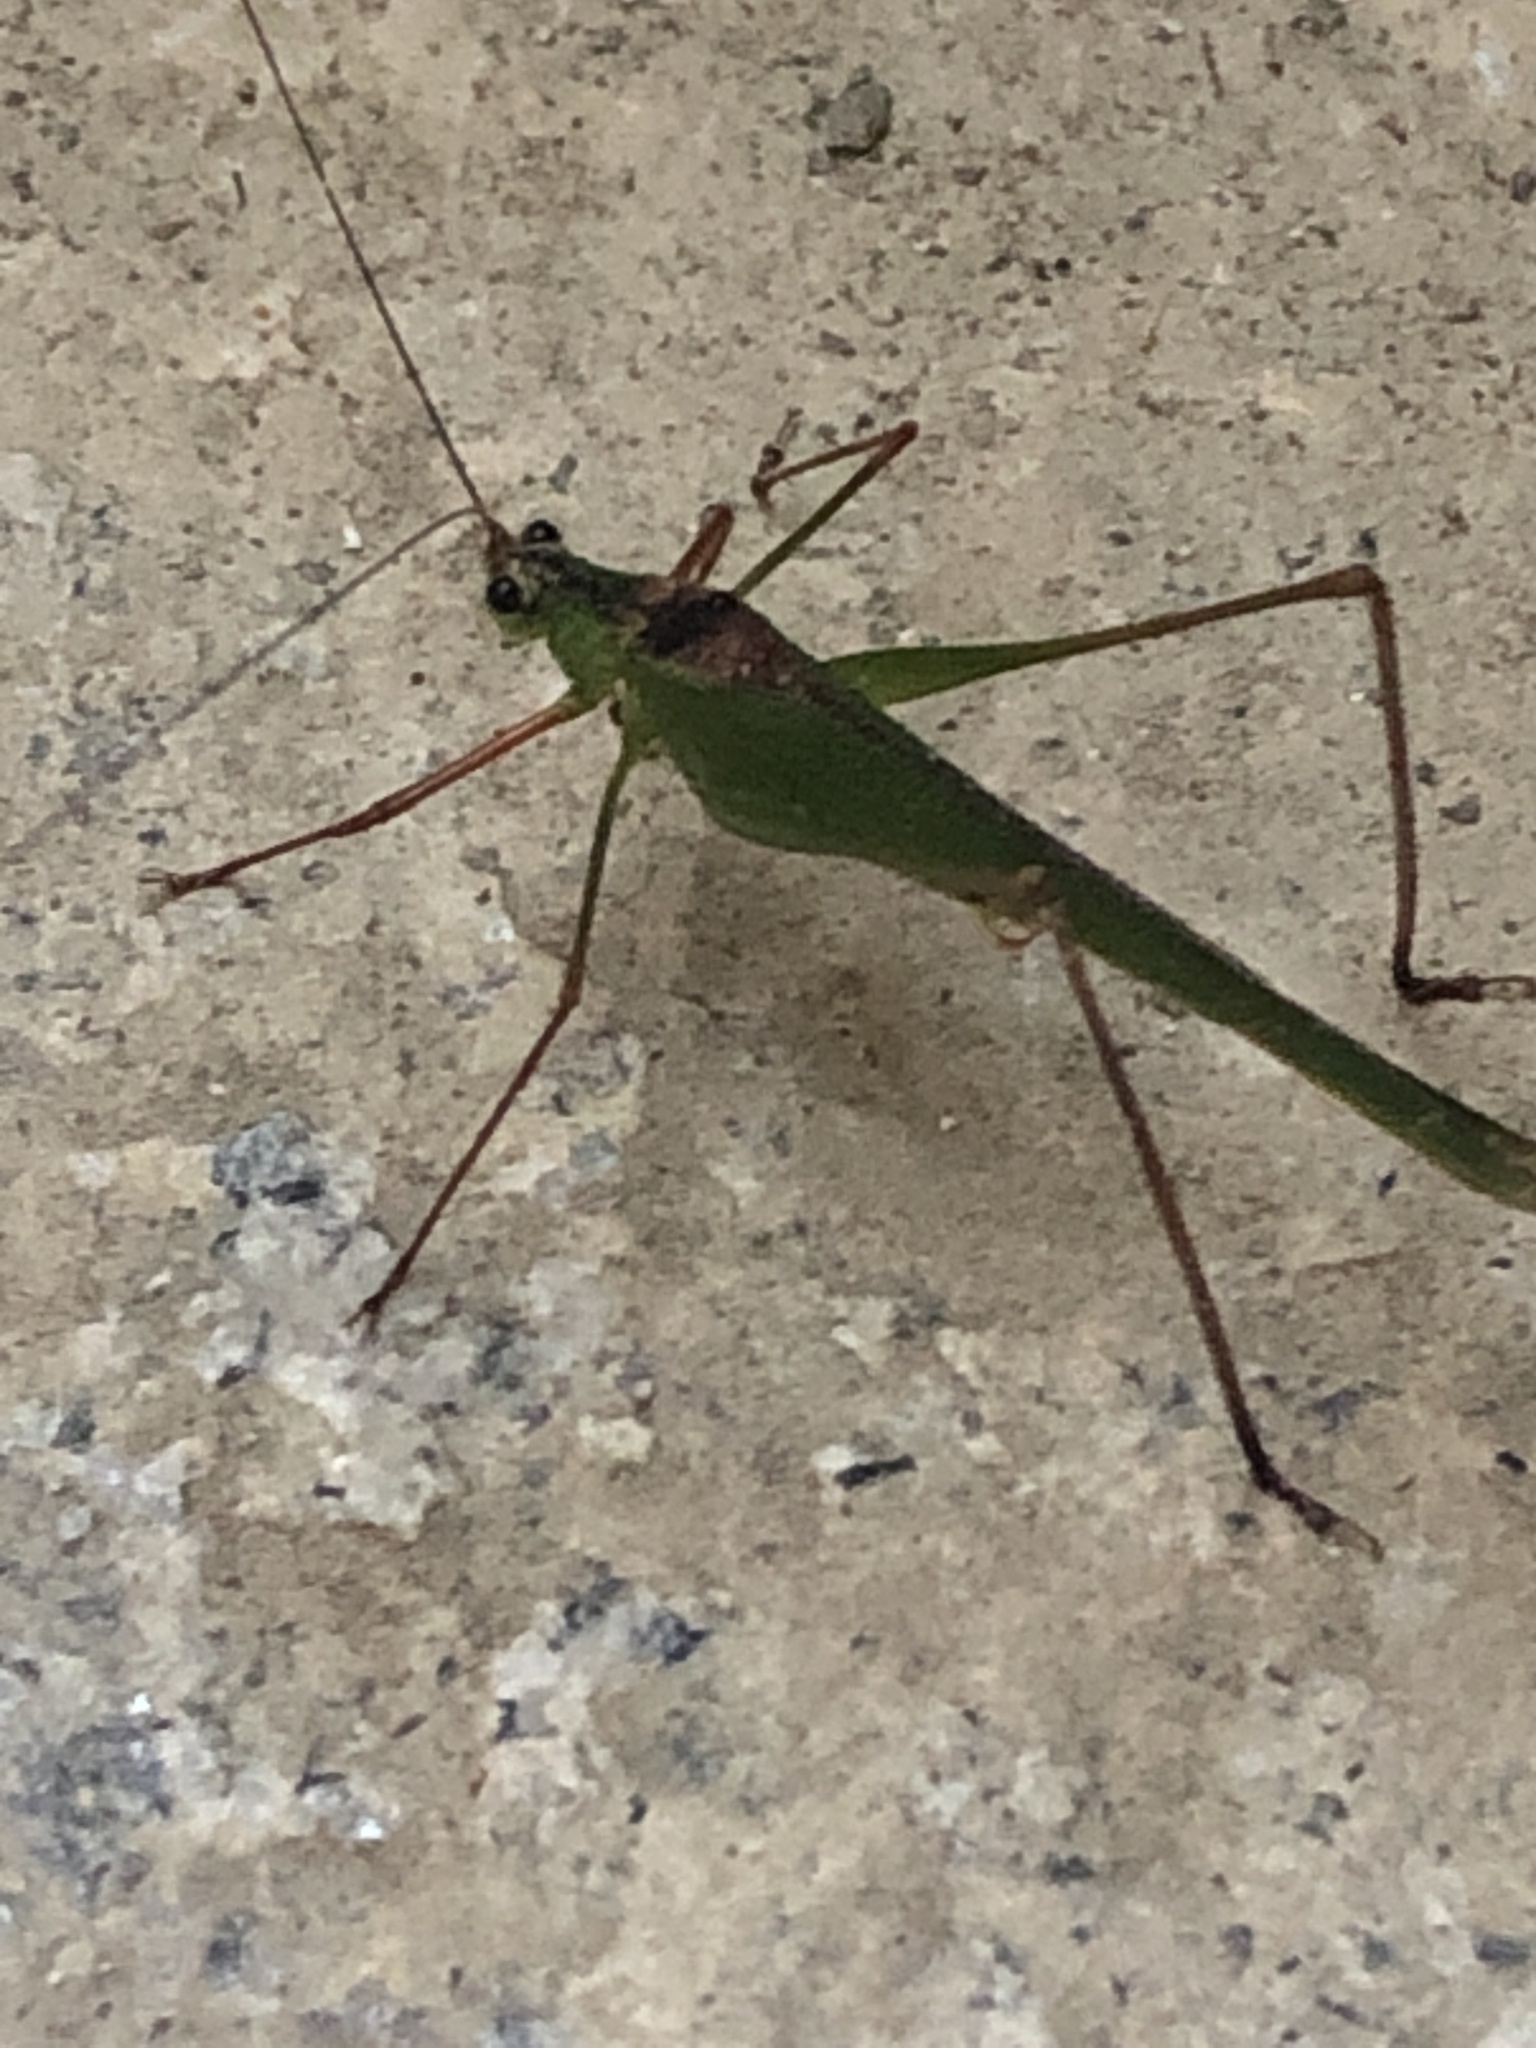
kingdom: Animalia
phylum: Arthropoda
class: Insecta
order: Orthoptera
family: Tettigoniidae
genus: Phaneroptera
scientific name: Phaneroptera nigroantennata
